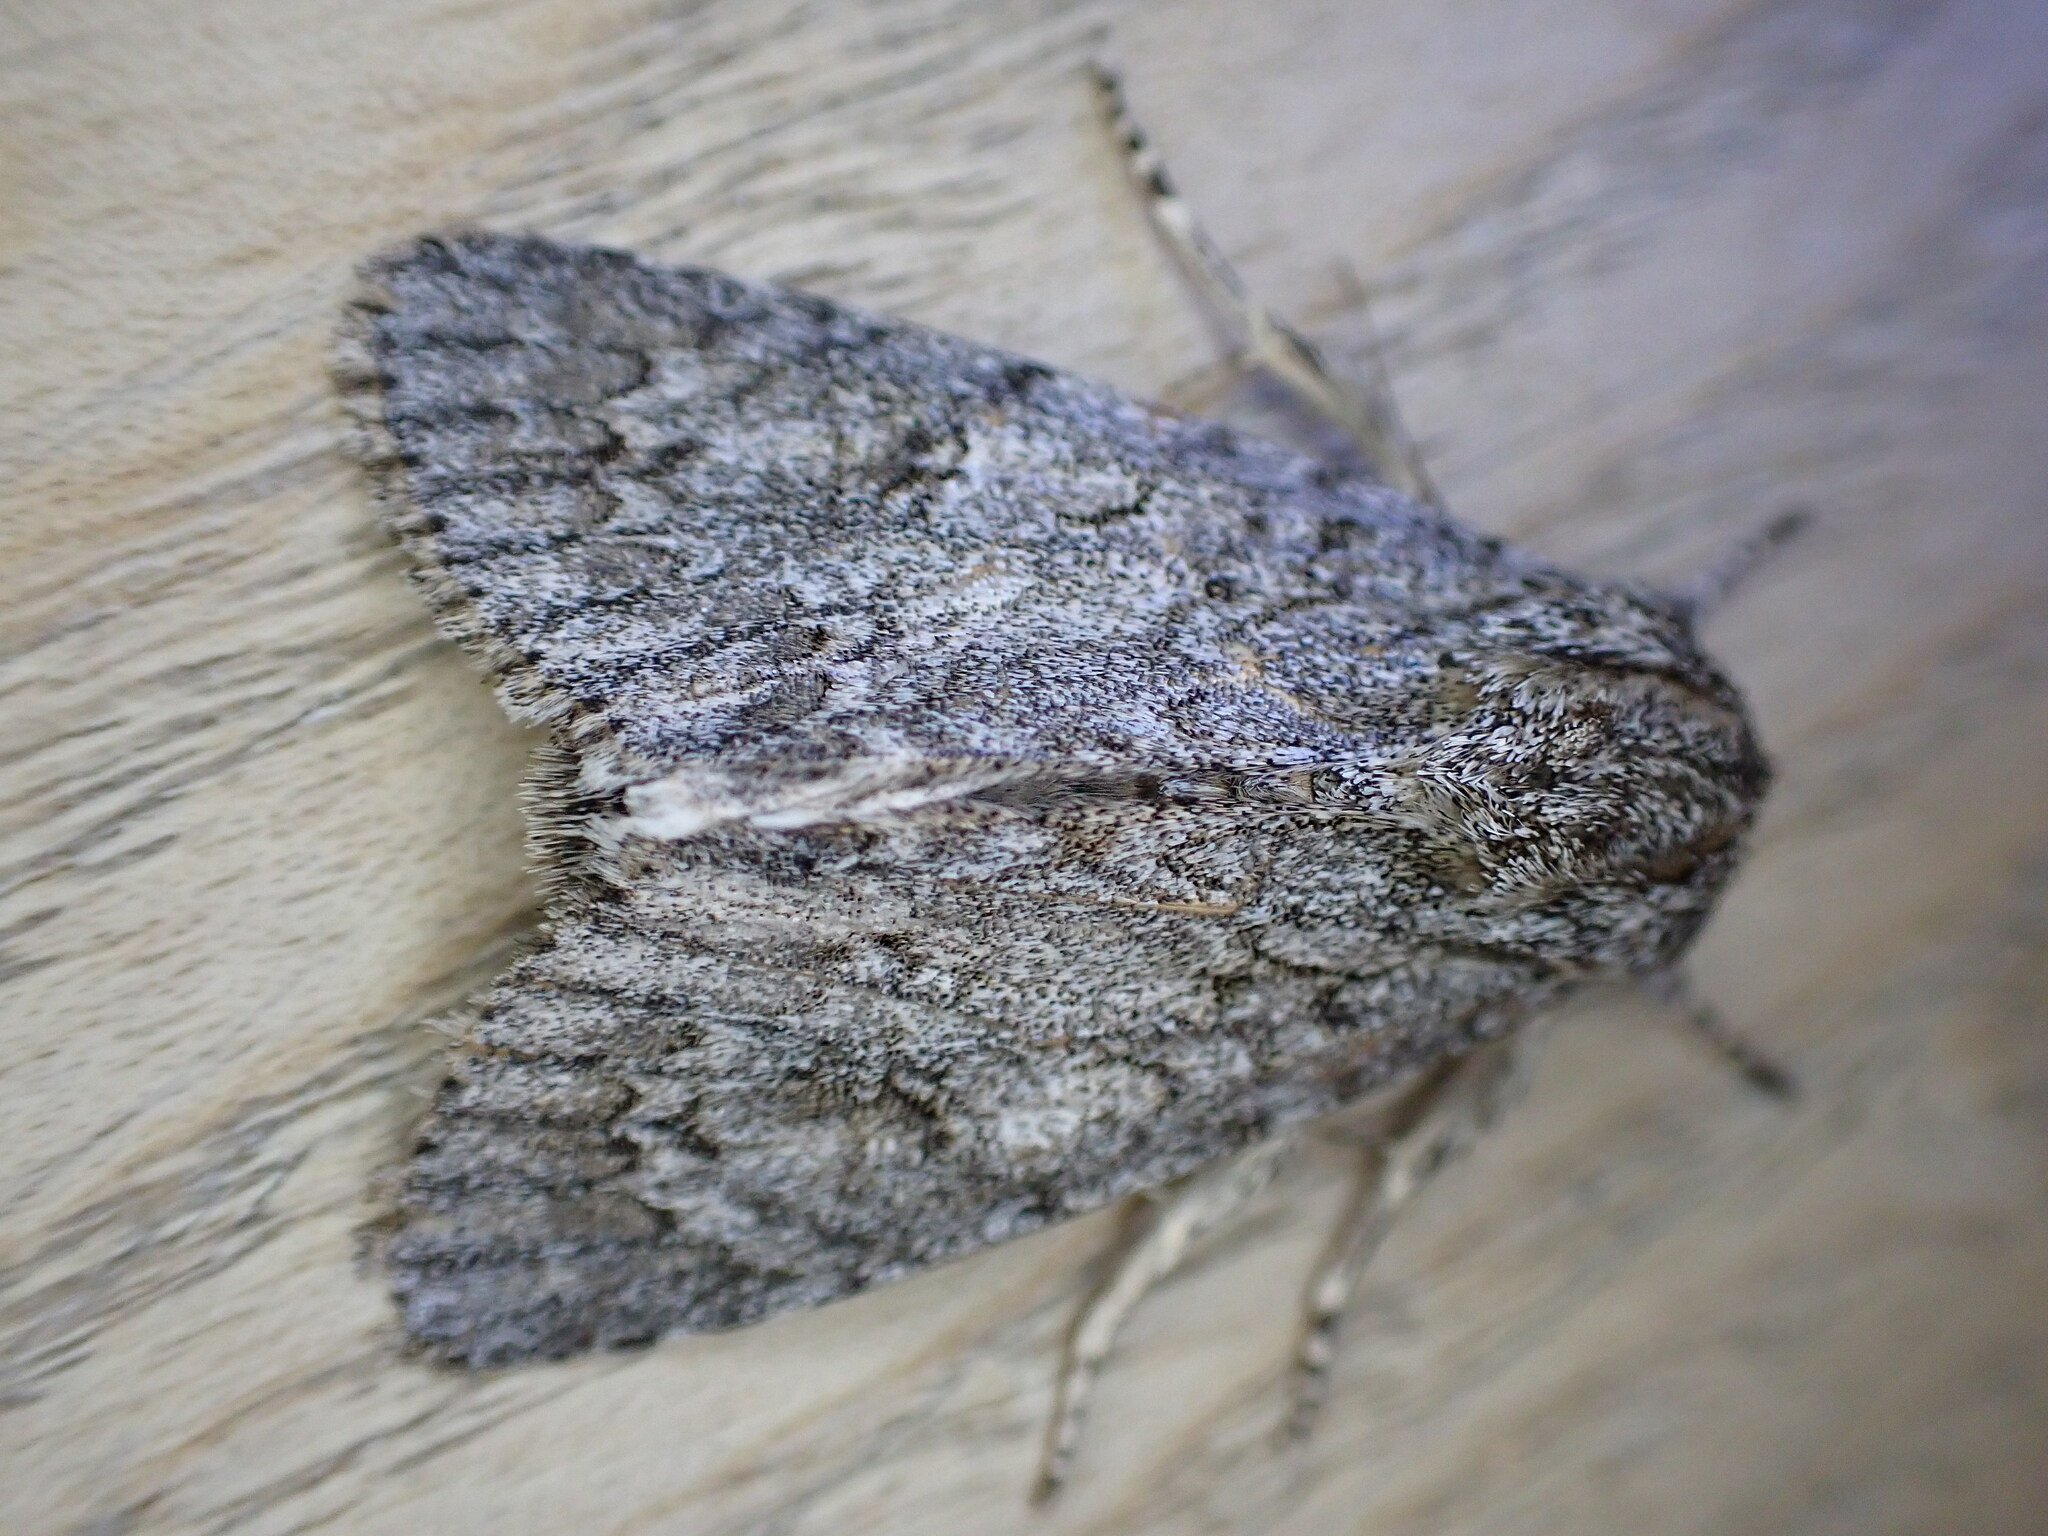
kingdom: Animalia
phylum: Arthropoda
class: Insecta
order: Lepidoptera
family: Noctuidae
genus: Acronicta
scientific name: Acronicta aceris
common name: Sycamore
